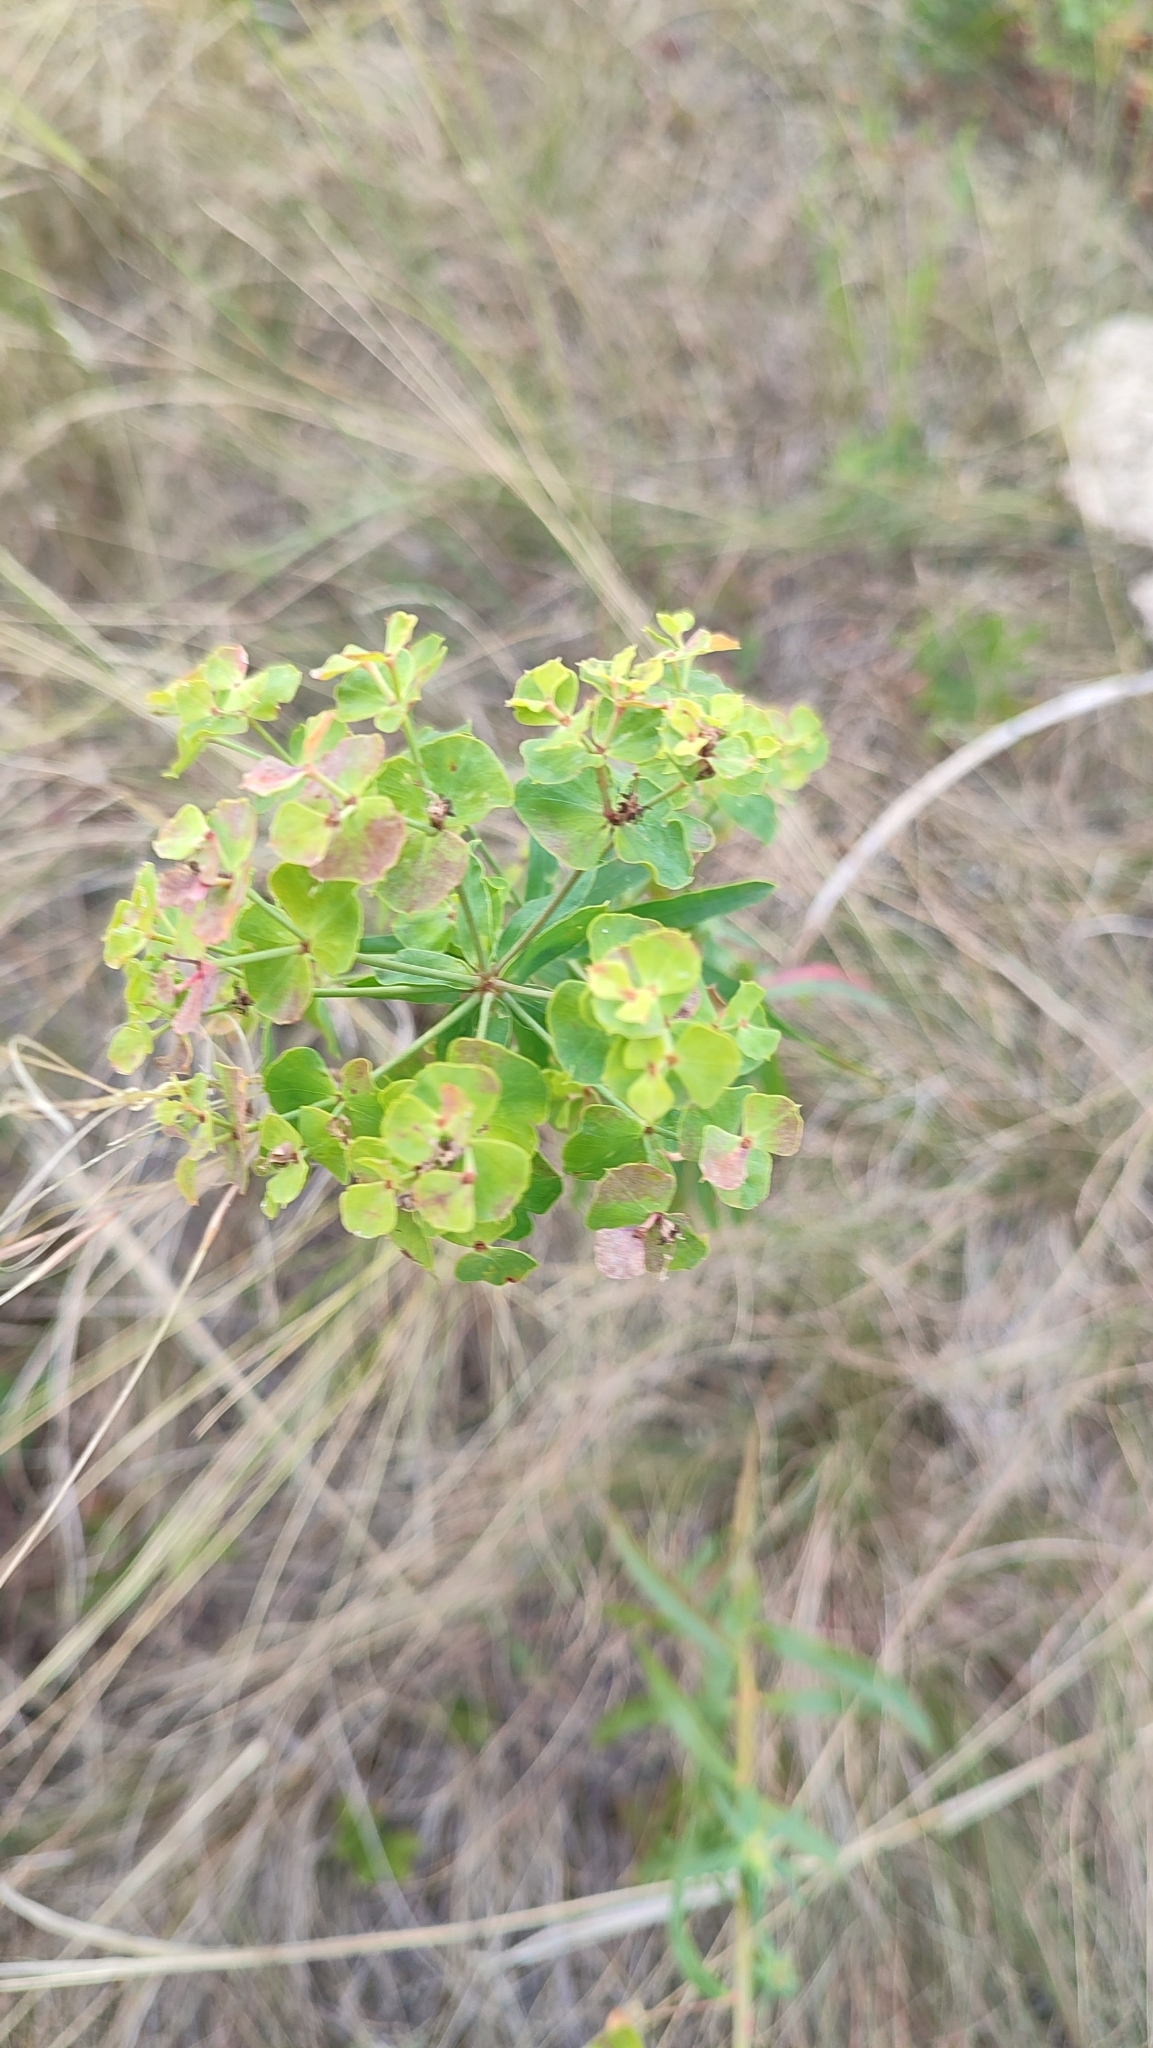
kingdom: Plantae
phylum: Tracheophyta
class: Magnoliopsida
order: Malpighiales
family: Euphorbiaceae
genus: Euphorbia
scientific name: Euphorbia virgata
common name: Leafy spurge
